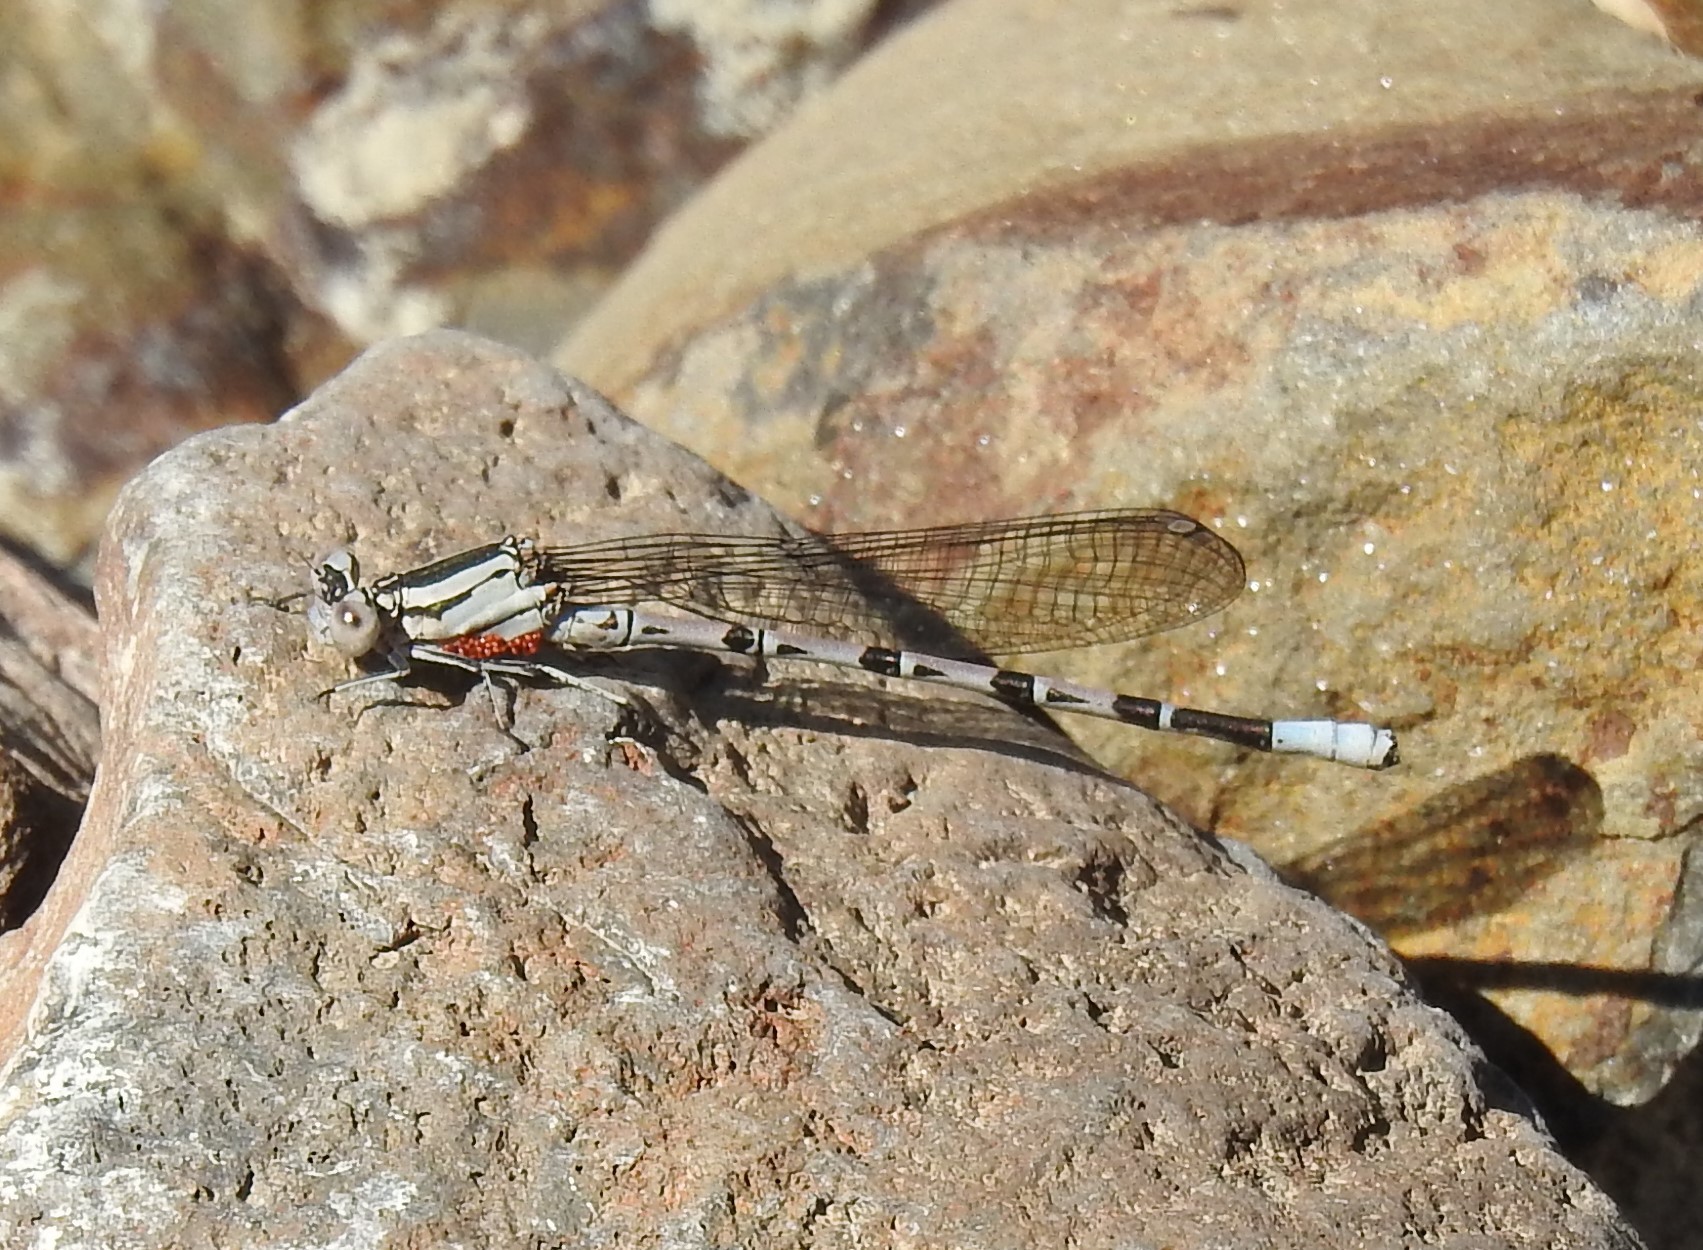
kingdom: Animalia
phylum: Arthropoda
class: Insecta
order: Odonata
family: Coenagrionidae
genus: Argia
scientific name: Argia vivida
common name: Vivid dancer
